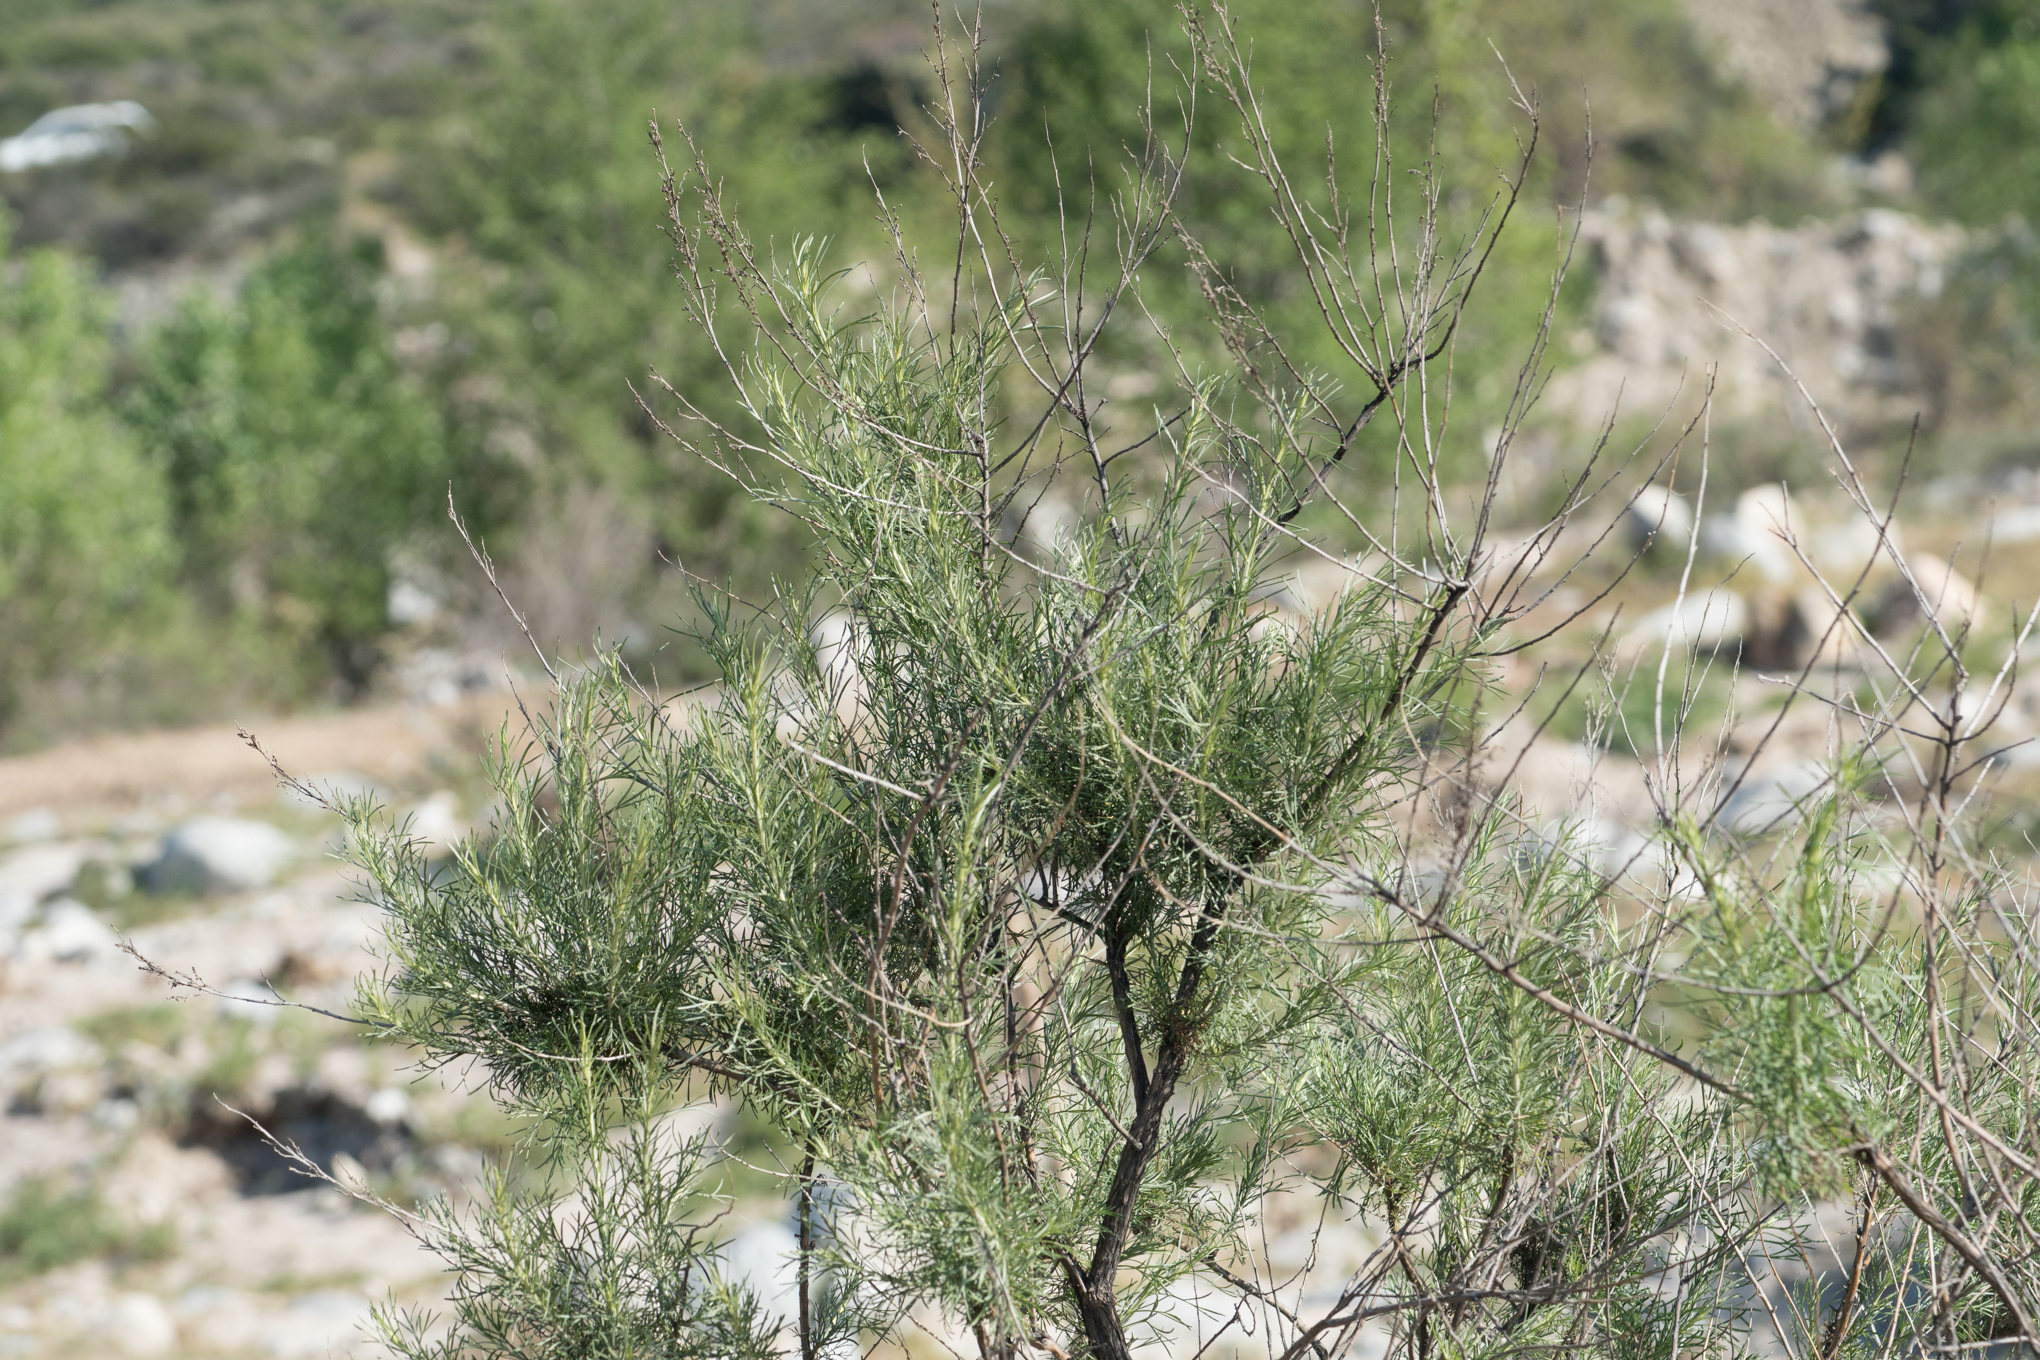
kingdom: Plantae
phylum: Tracheophyta
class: Magnoliopsida
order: Asterales
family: Asteraceae
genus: Artemisia
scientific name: Artemisia californica
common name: California sagebrush
